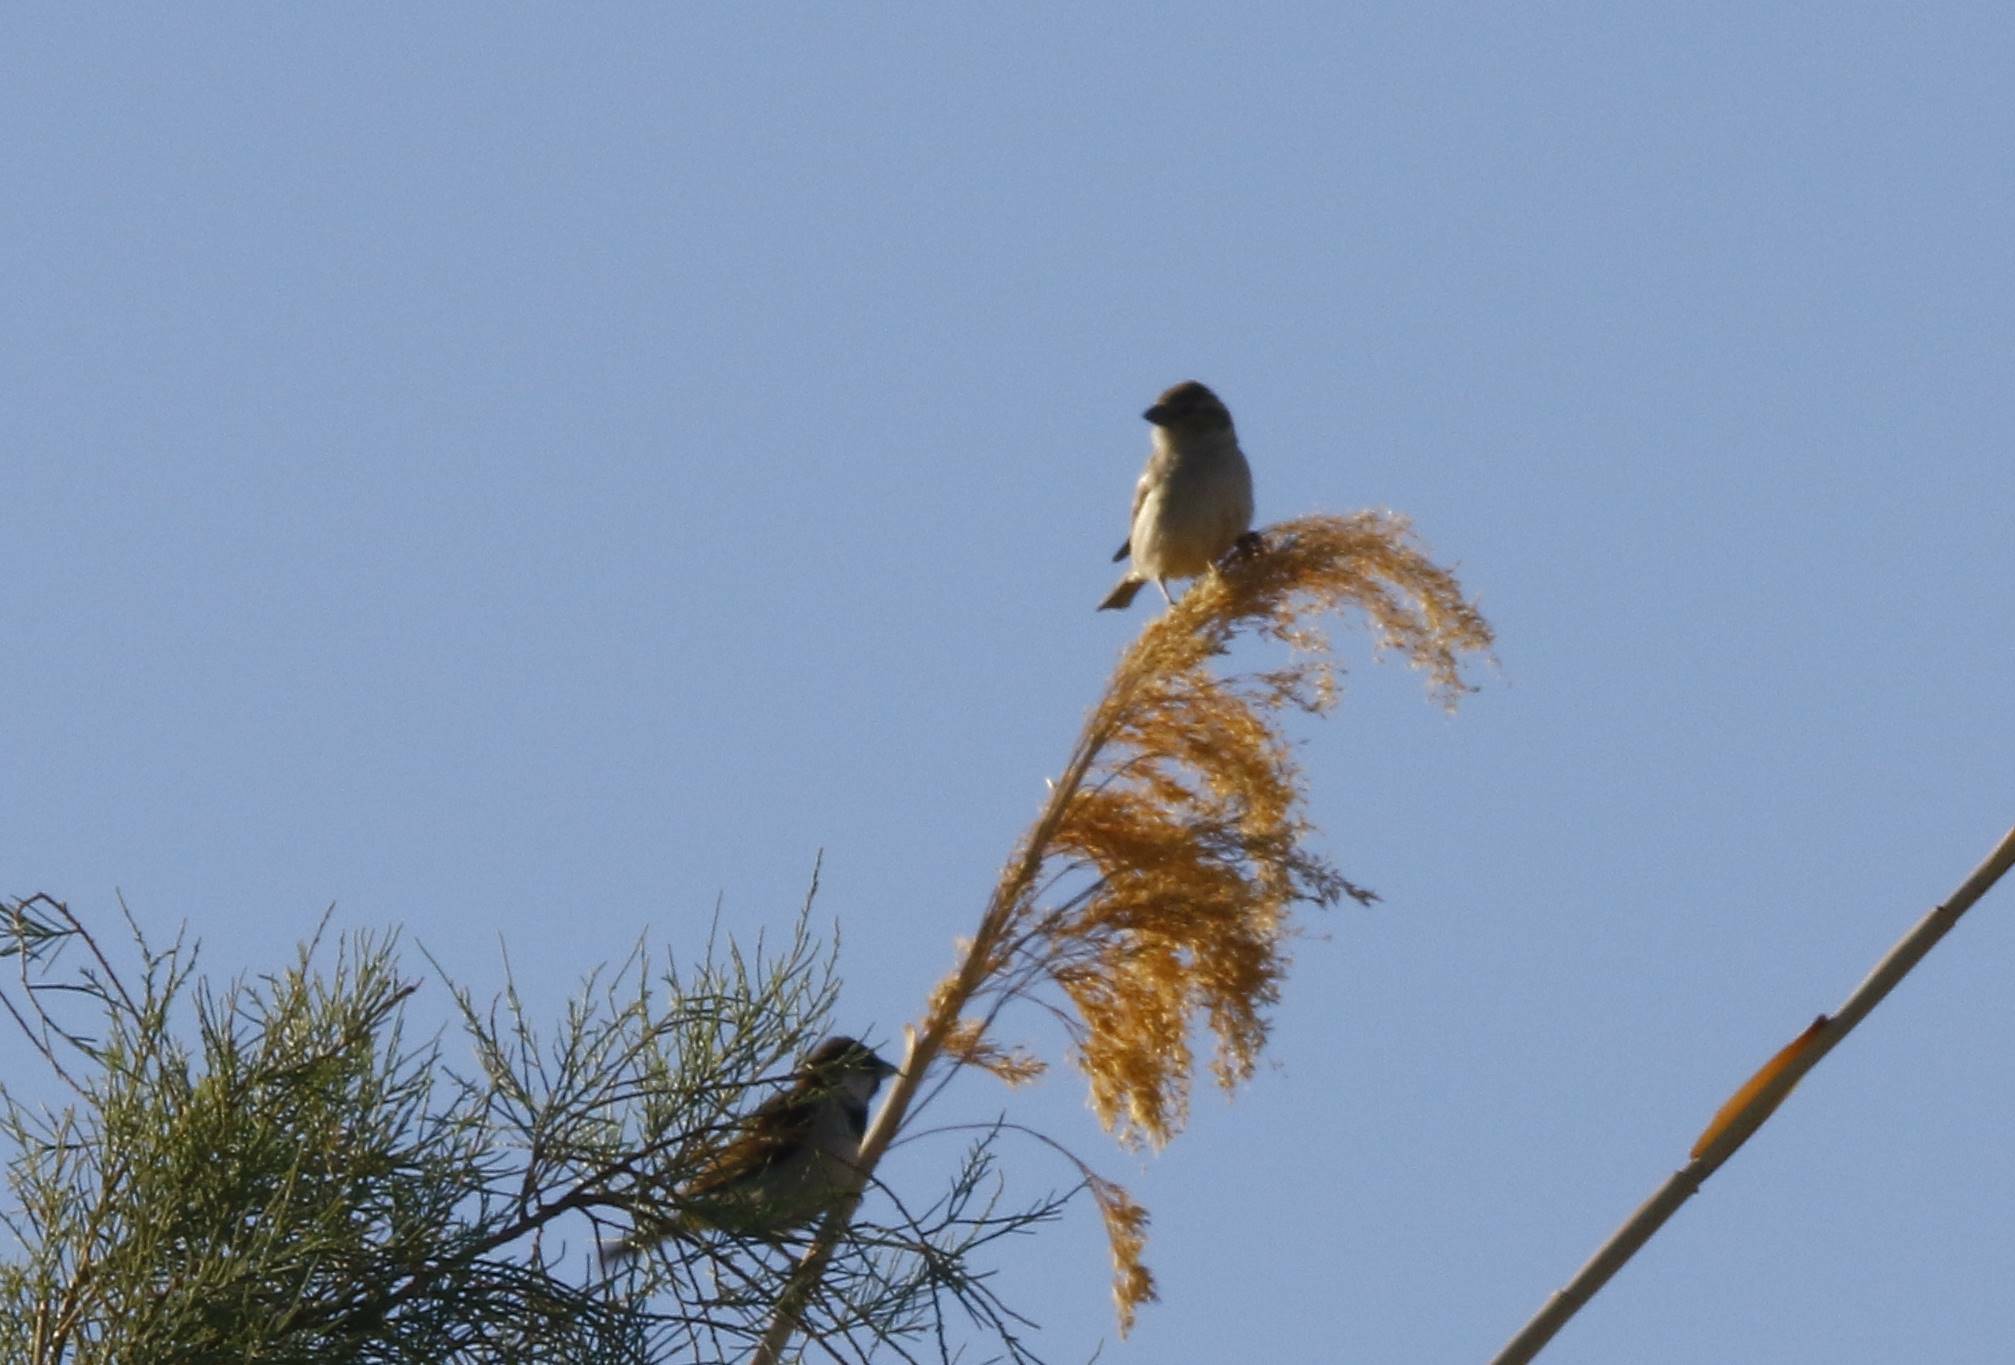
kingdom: Animalia
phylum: Chordata
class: Aves
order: Passeriformes
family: Passeridae
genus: Passer
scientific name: Passer domesticus
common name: House sparrow
